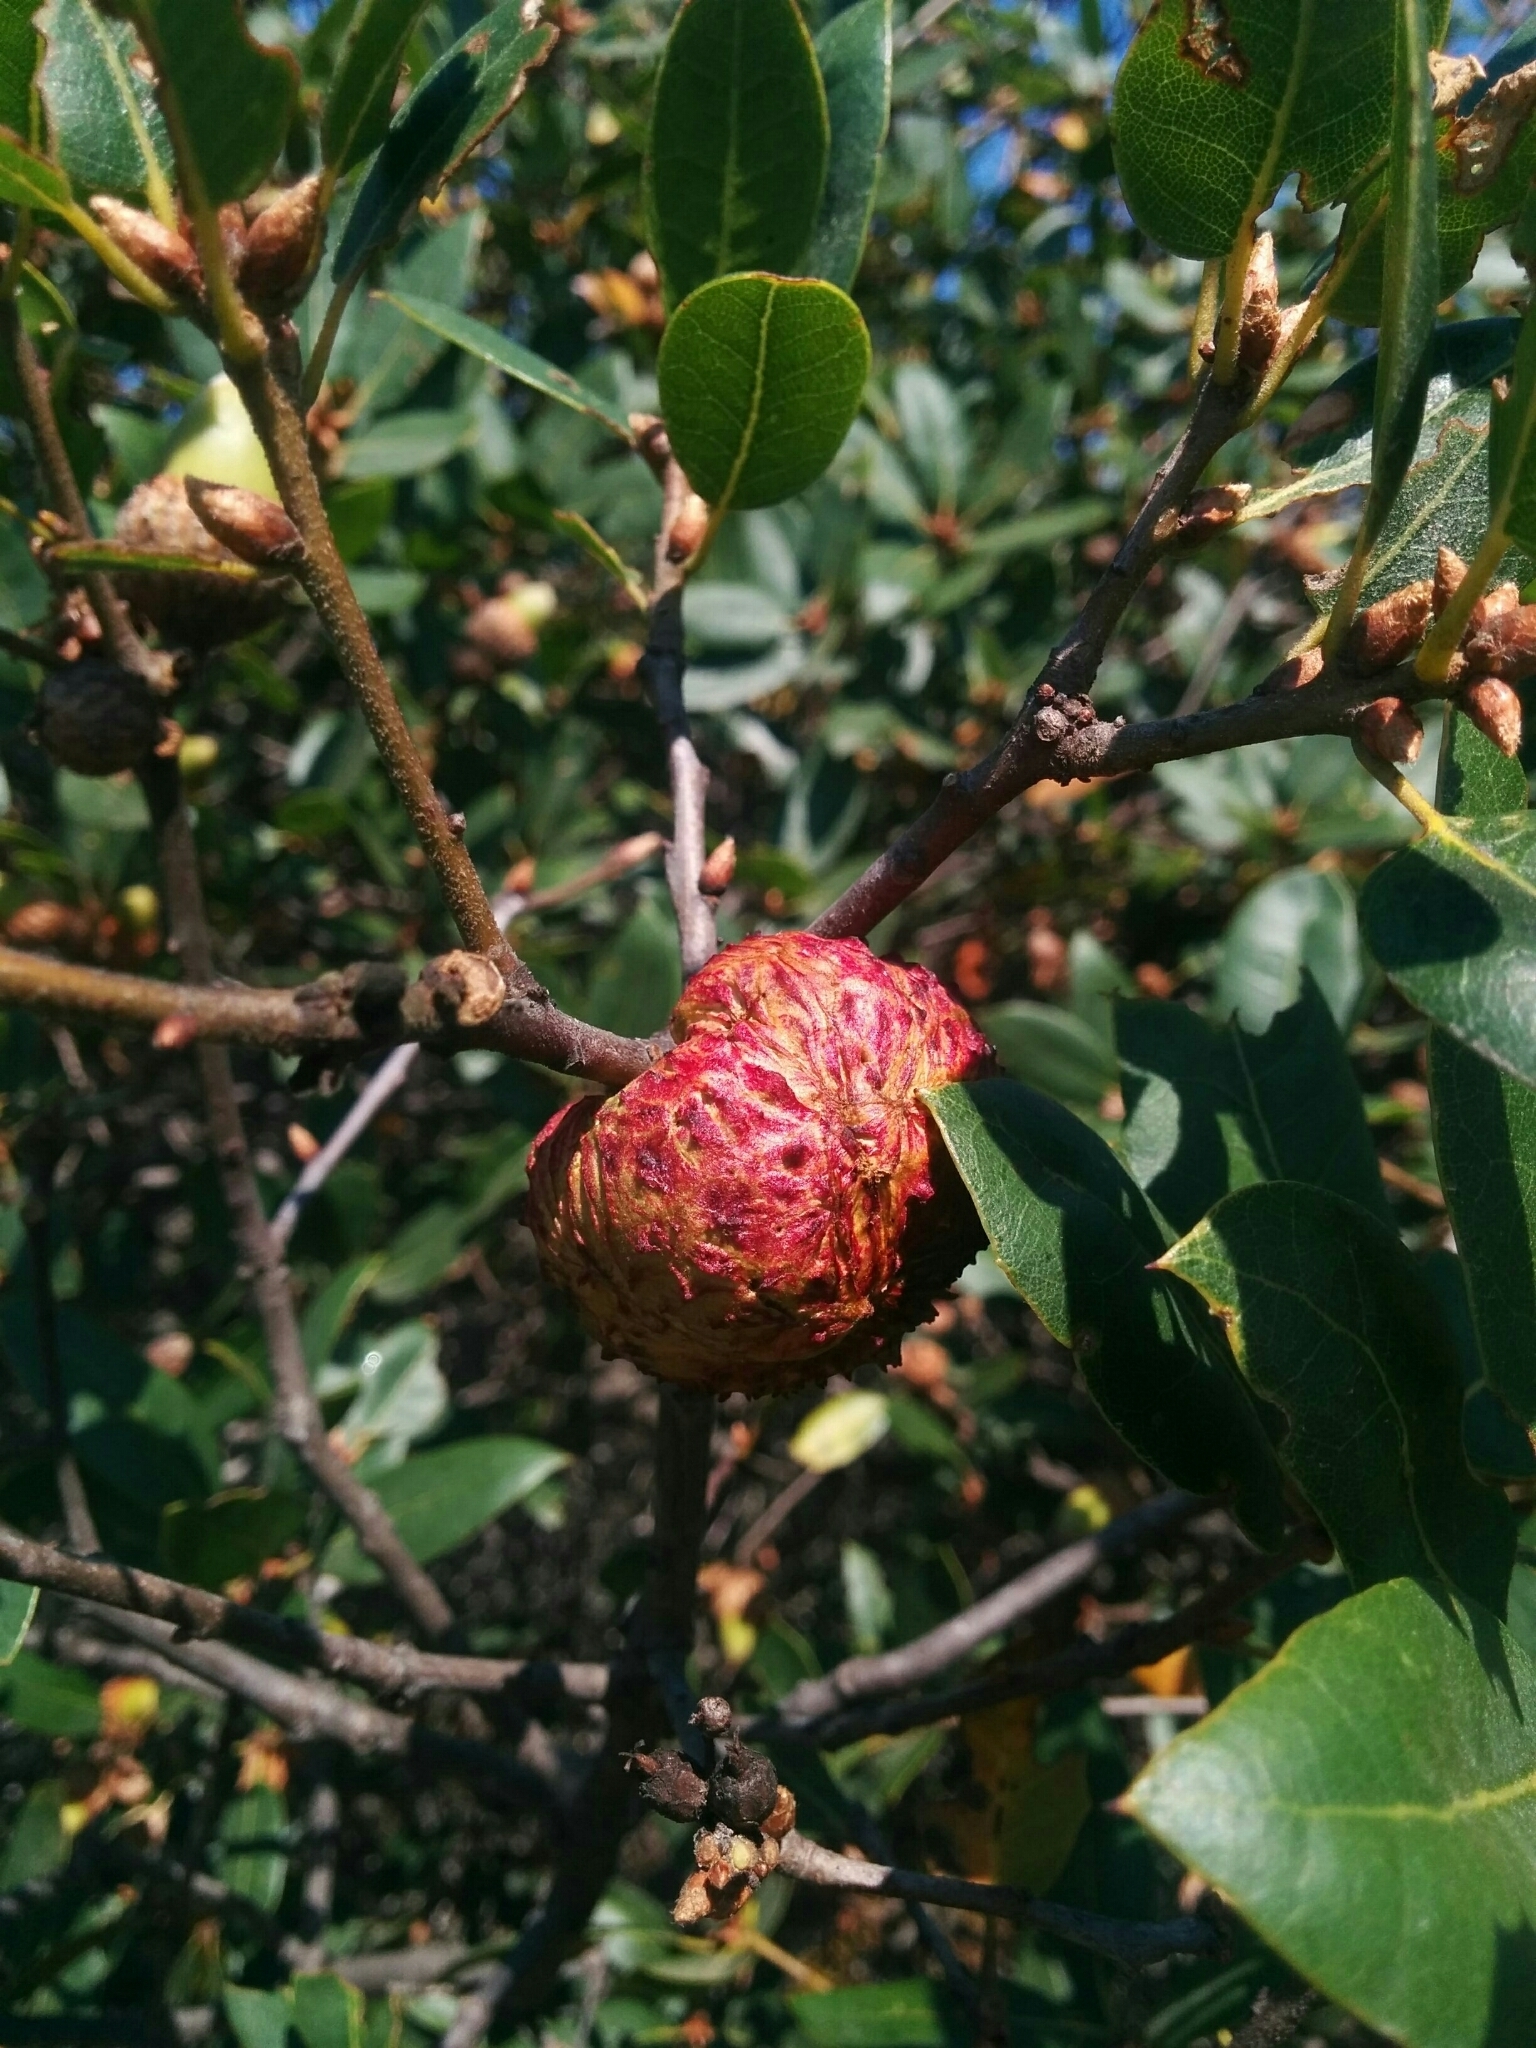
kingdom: Animalia
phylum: Arthropoda
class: Insecta
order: Hymenoptera
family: Cynipidae
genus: Amphibolips
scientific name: Amphibolips quercuspomiformis
